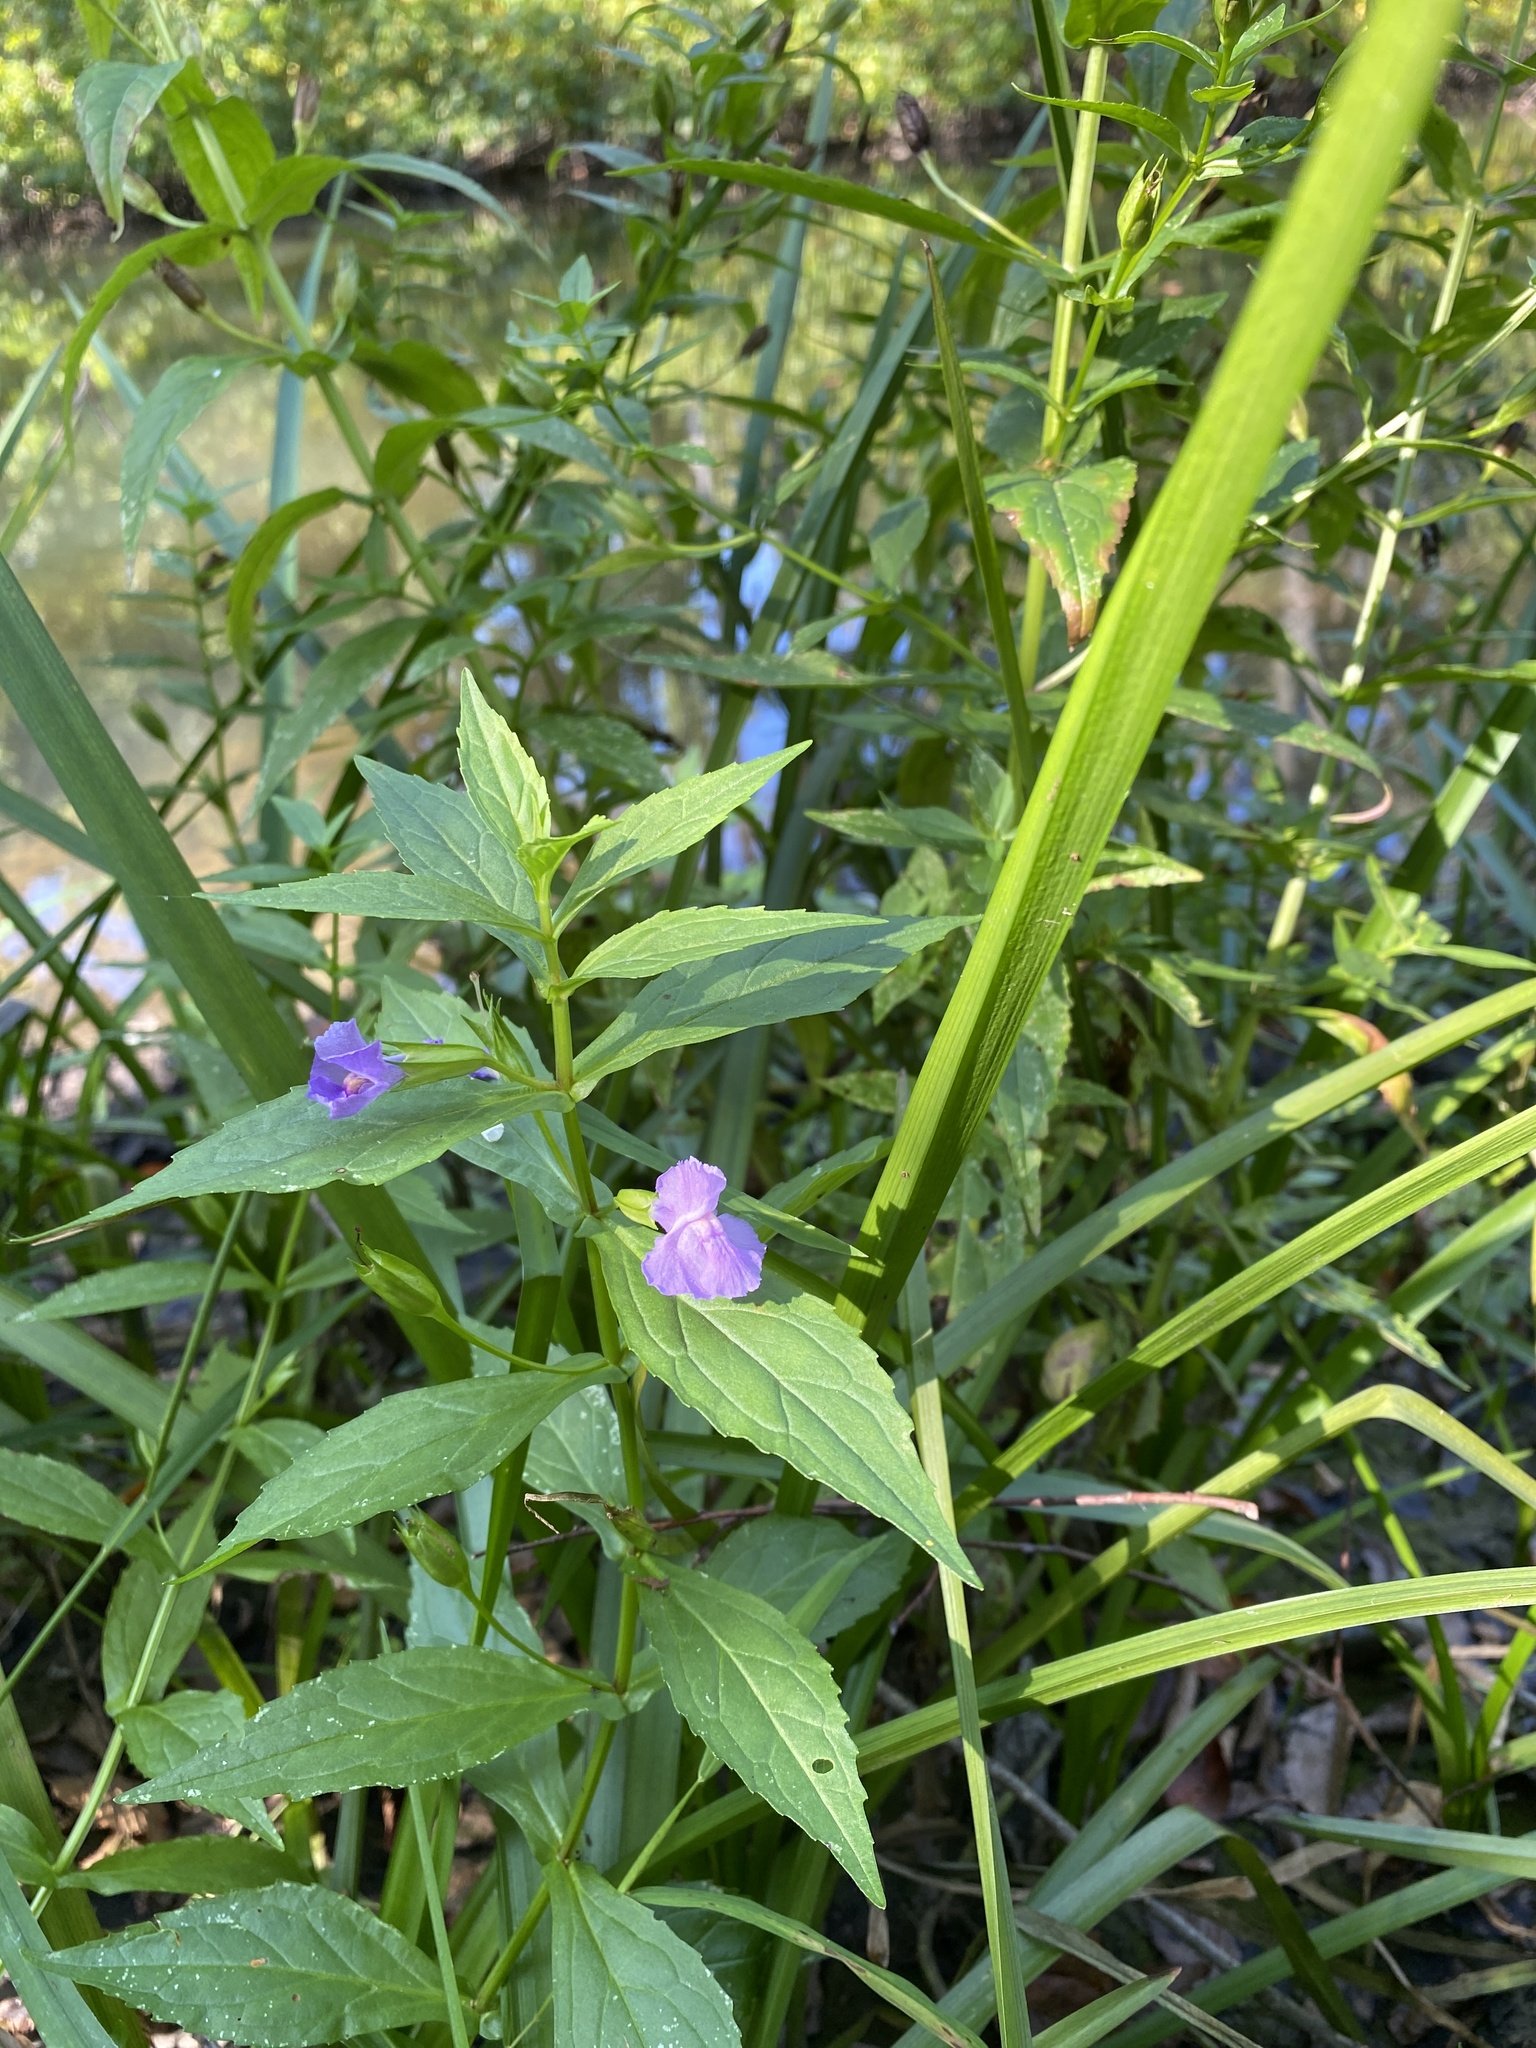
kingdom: Plantae
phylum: Tracheophyta
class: Magnoliopsida
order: Lamiales
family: Phrymaceae
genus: Mimulus
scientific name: Mimulus ringens
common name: Allegheny monkeyflower
